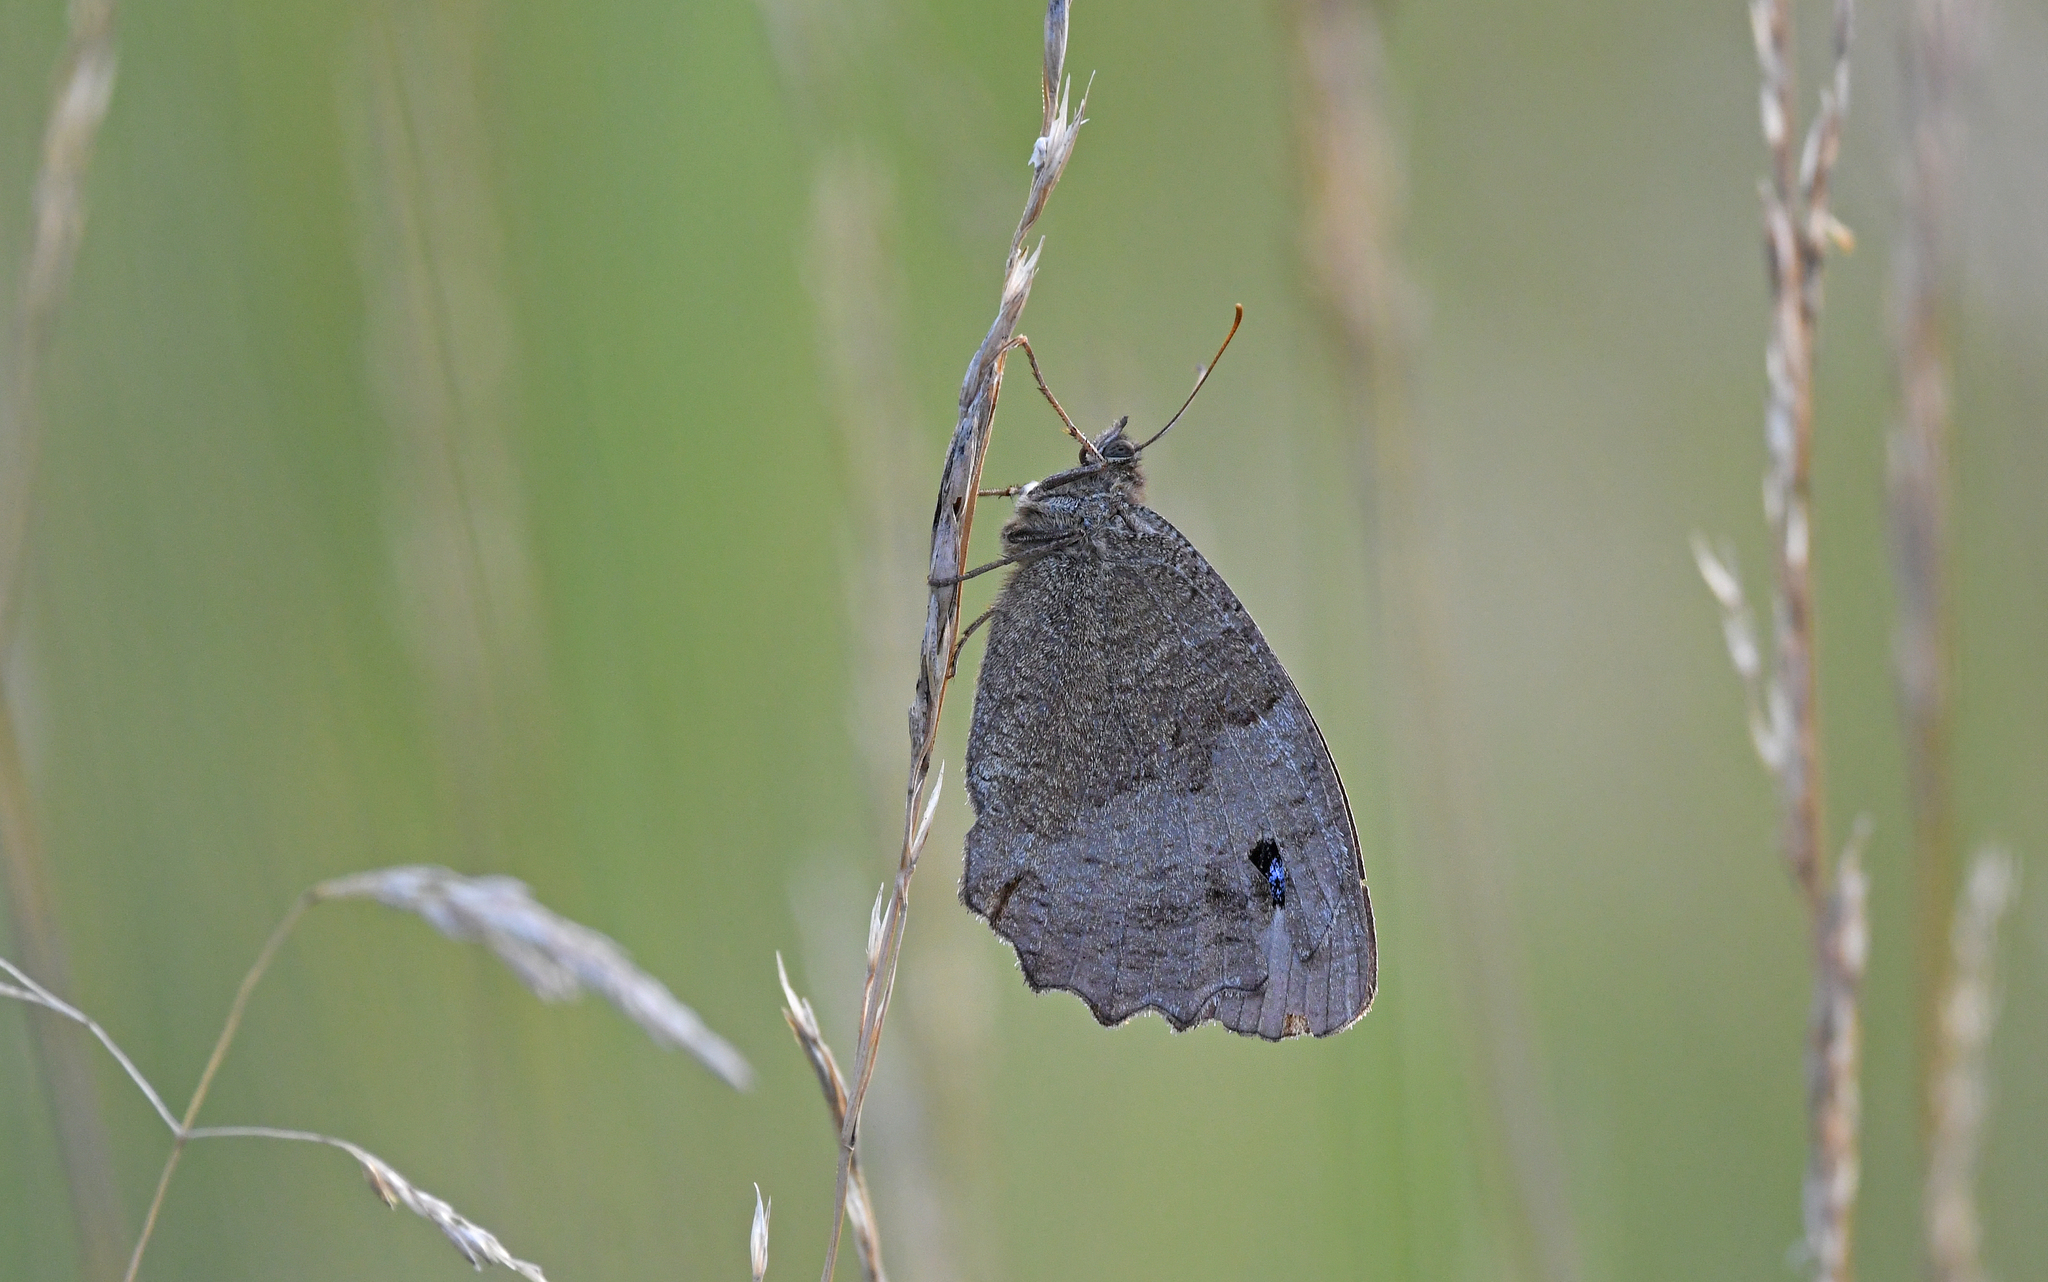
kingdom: Animalia
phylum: Arthropoda
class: Insecta
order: Lepidoptera
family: Nymphalidae
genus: Minois
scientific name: Minois dryas
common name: Dryad
